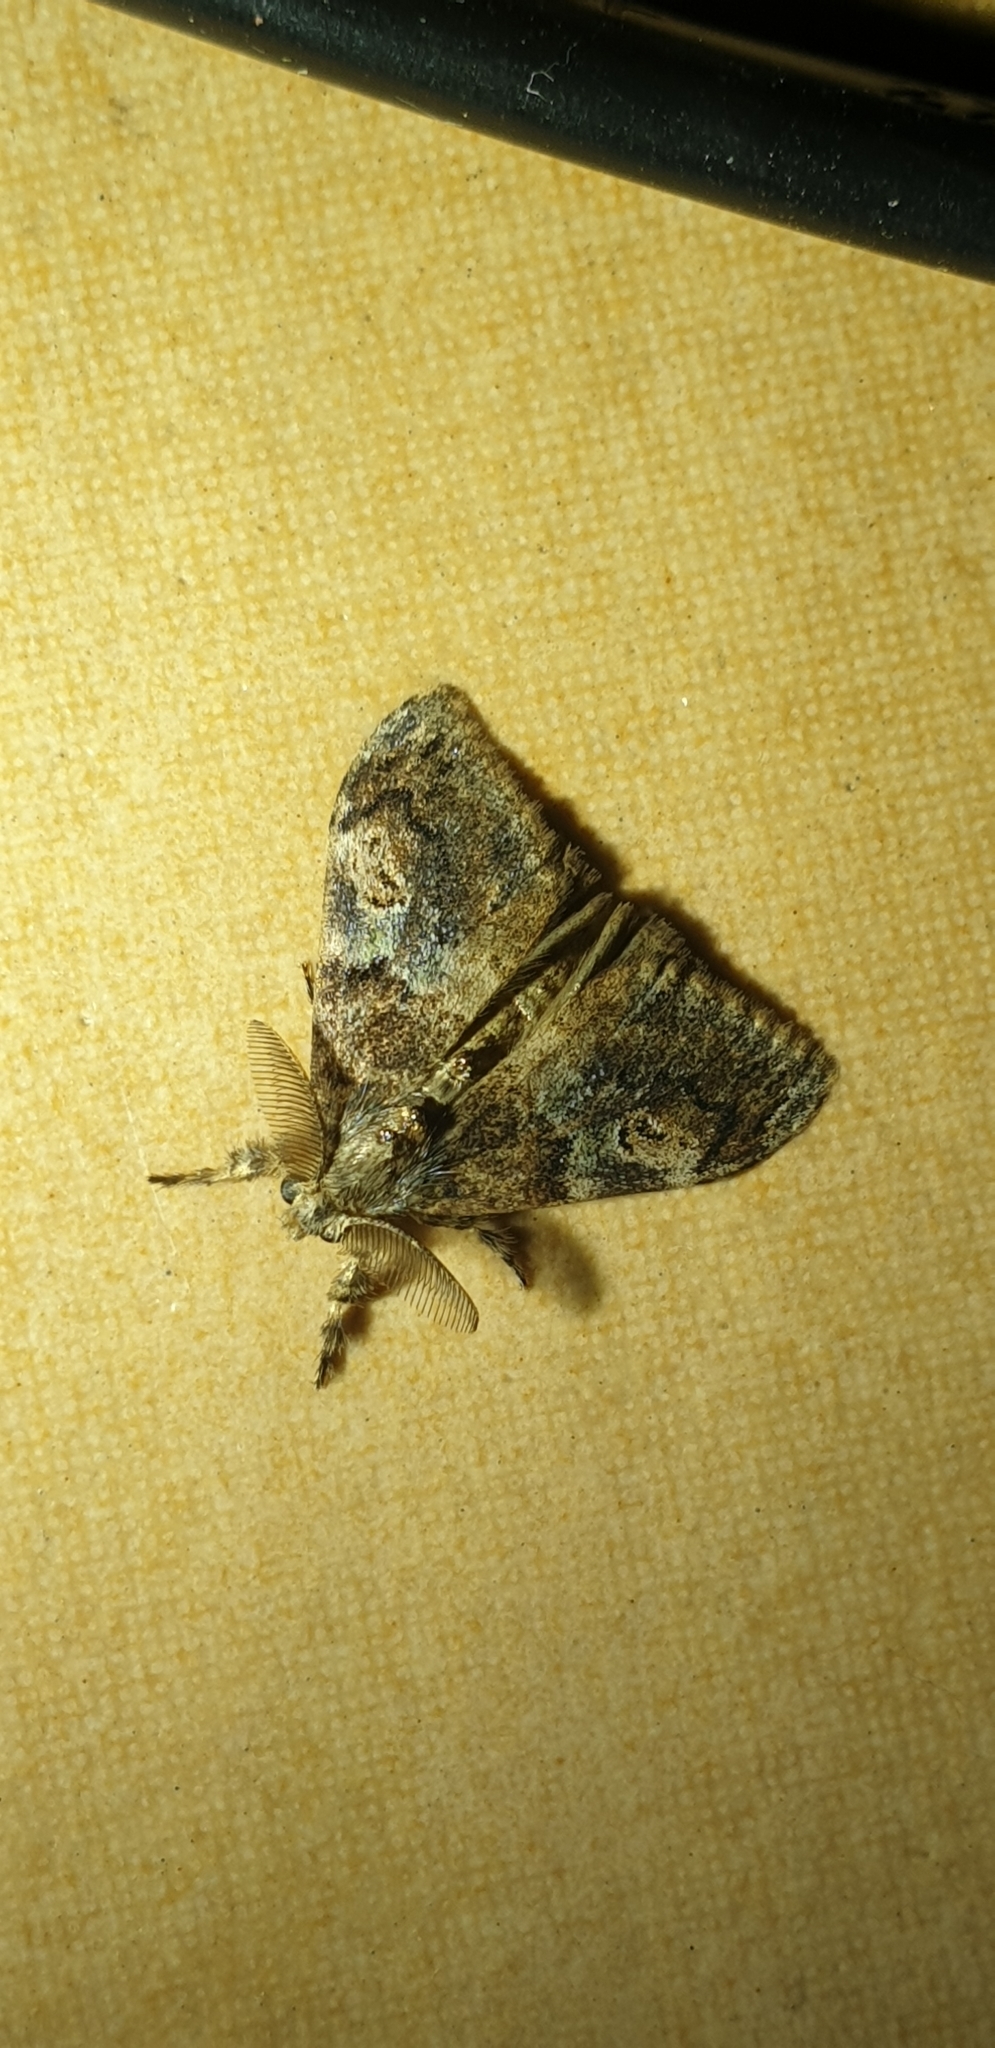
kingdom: Animalia
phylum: Arthropoda
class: Insecta
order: Lepidoptera
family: Erebidae
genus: Orgyia
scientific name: Orgyia australis
